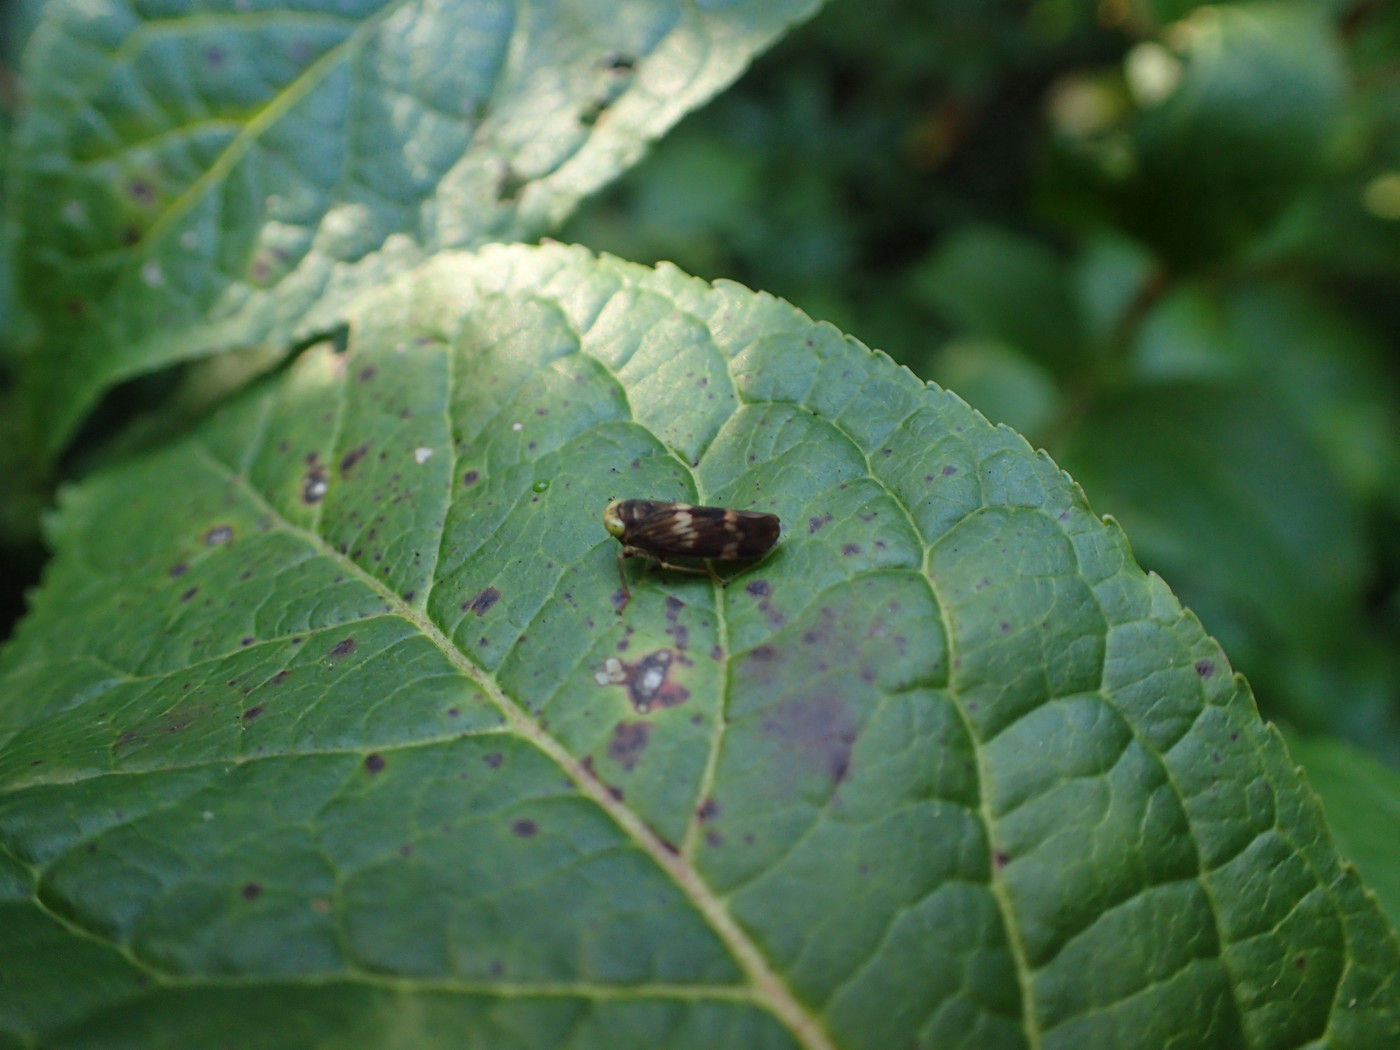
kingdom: Animalia
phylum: Arthropoda
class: Insecta
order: Hemiptera
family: Cicadellidae
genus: Jikradia
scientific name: Jikradia olitoria
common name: Coppery leafhopper
